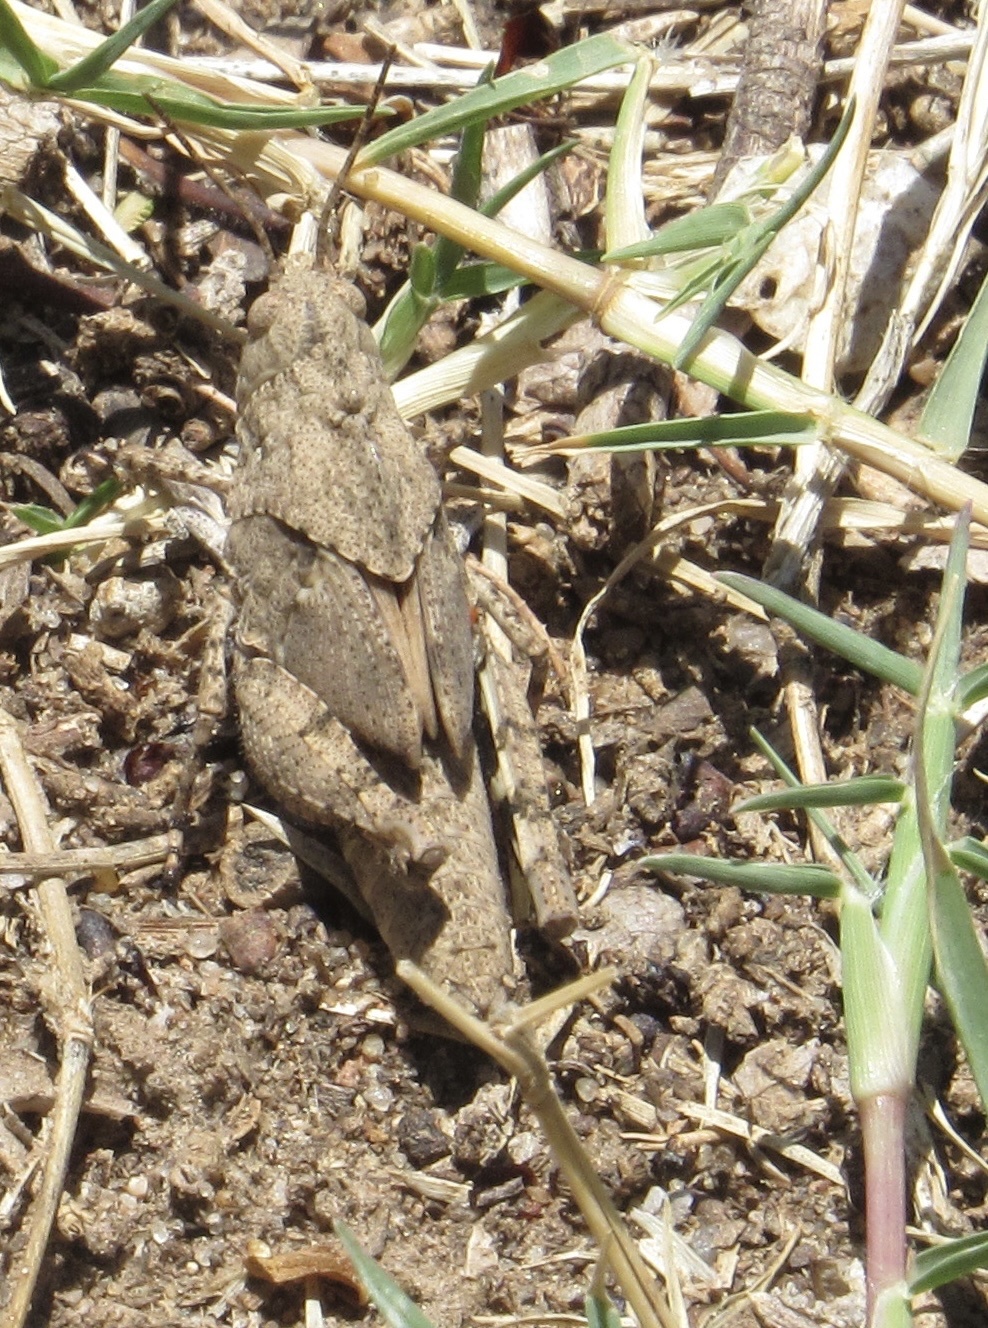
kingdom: Animalia
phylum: Arthropoda
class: Insecta
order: Orthoptera
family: Acrididae
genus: Dissosteira
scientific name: Dissosteira carolina
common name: Carolina grasshopper
